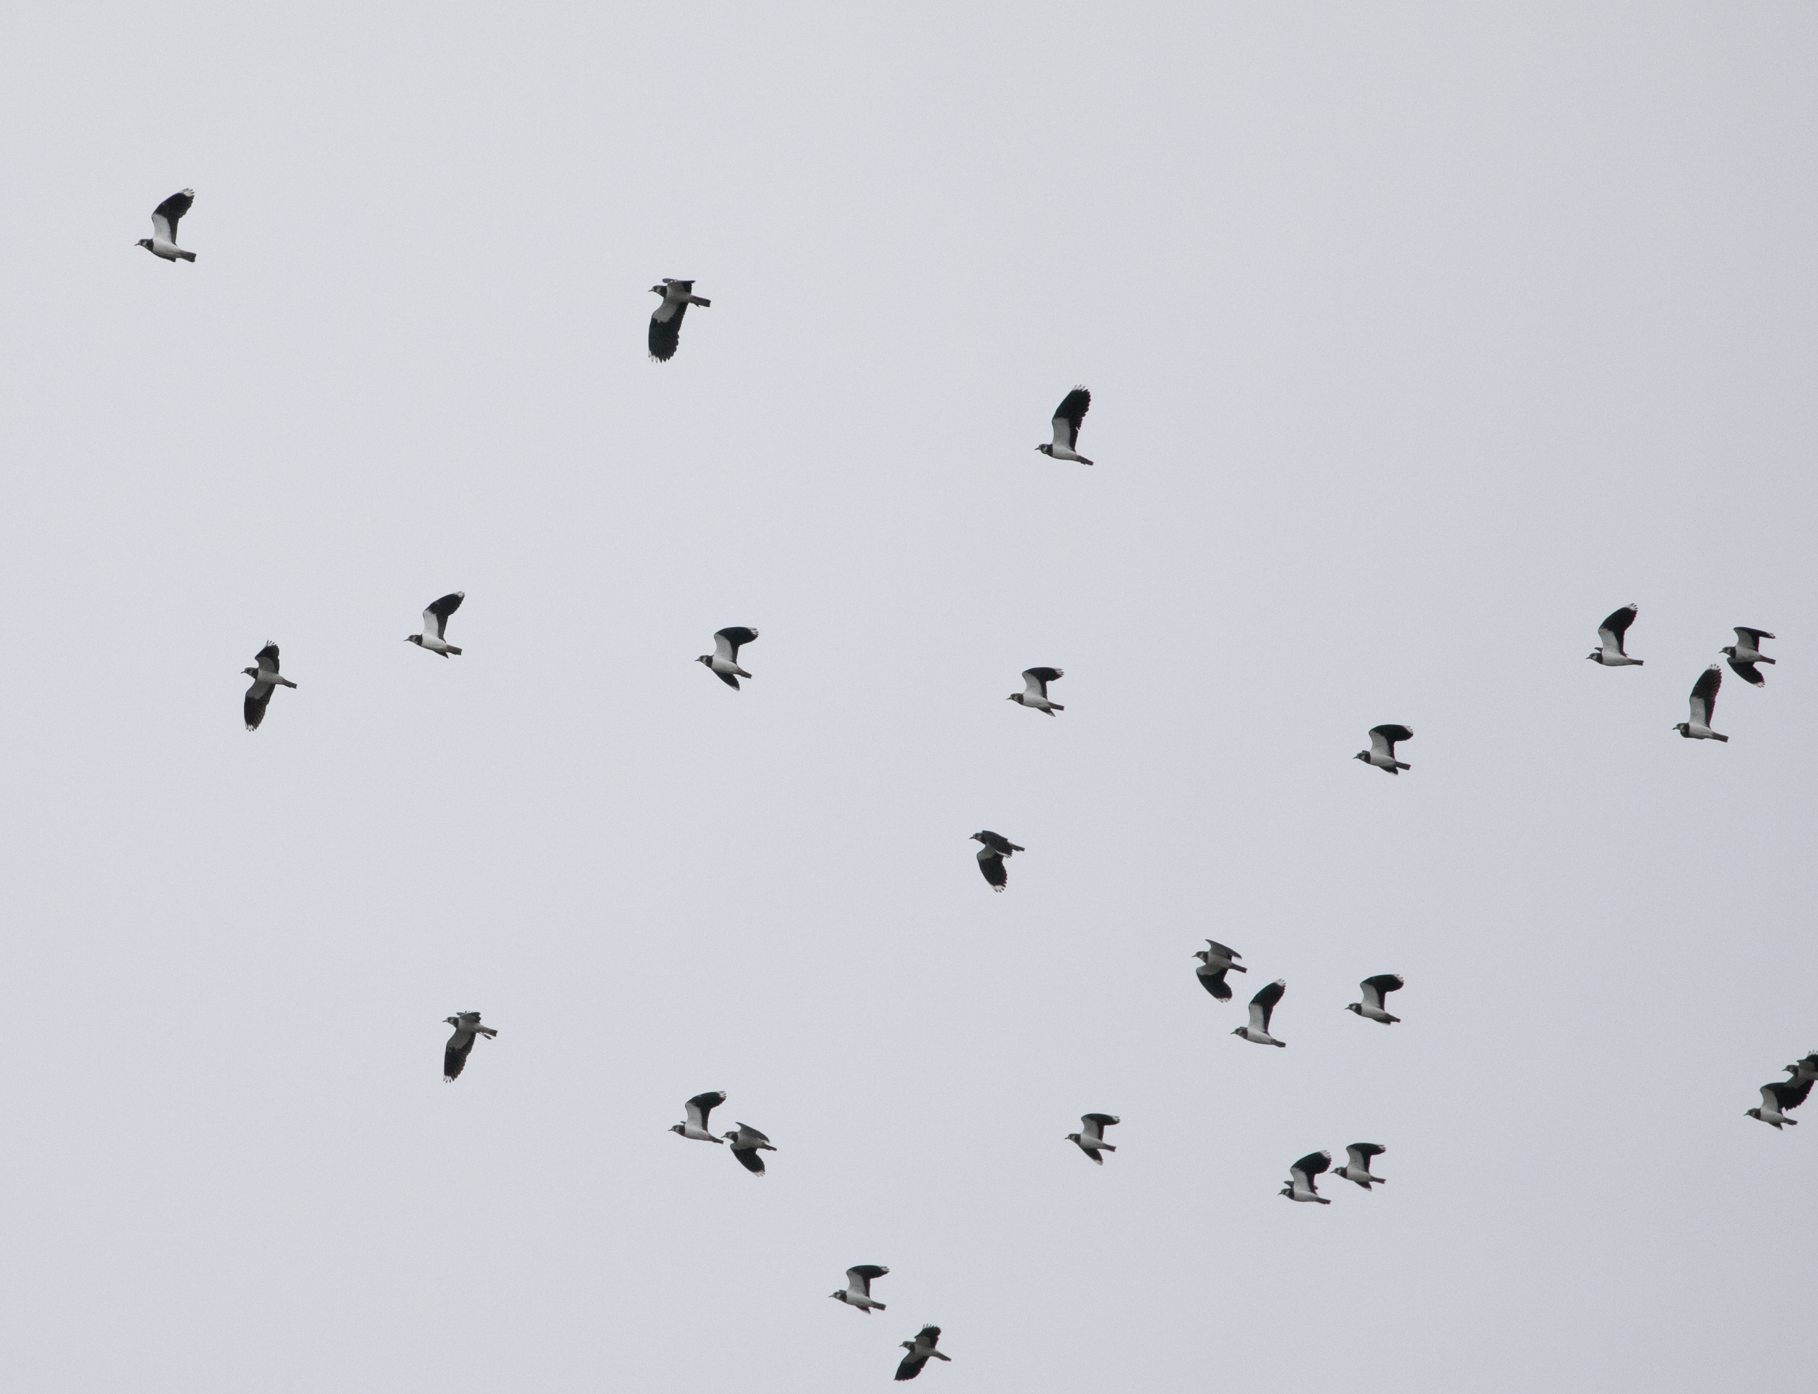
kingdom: Animalia
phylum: Chordata
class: Aves
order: Charadriiformes
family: Charadriidae
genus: Vanellus
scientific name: Vanellus vanellus
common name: Northern lapwing
